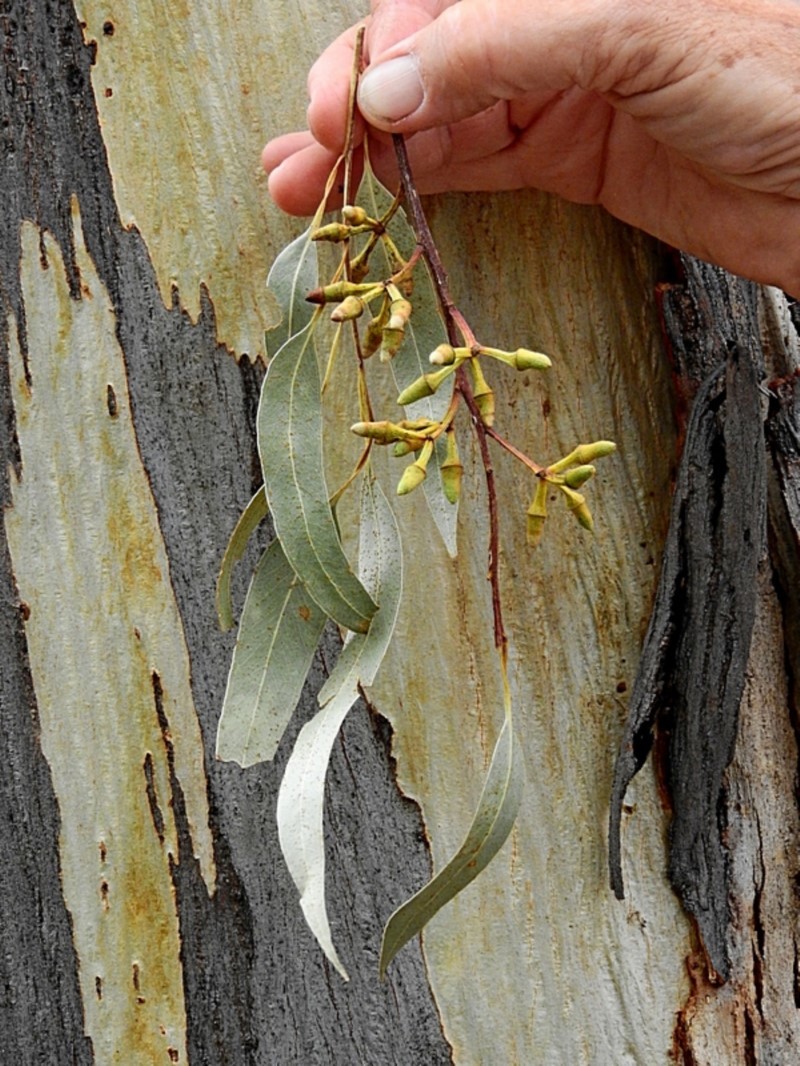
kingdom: Plantae
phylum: Tracheophyta
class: Magnoliopsida
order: Myrtales
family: Myrtaceae
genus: Eucalyptus
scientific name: Eucalyptus tereticornis
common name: Forest redgum
